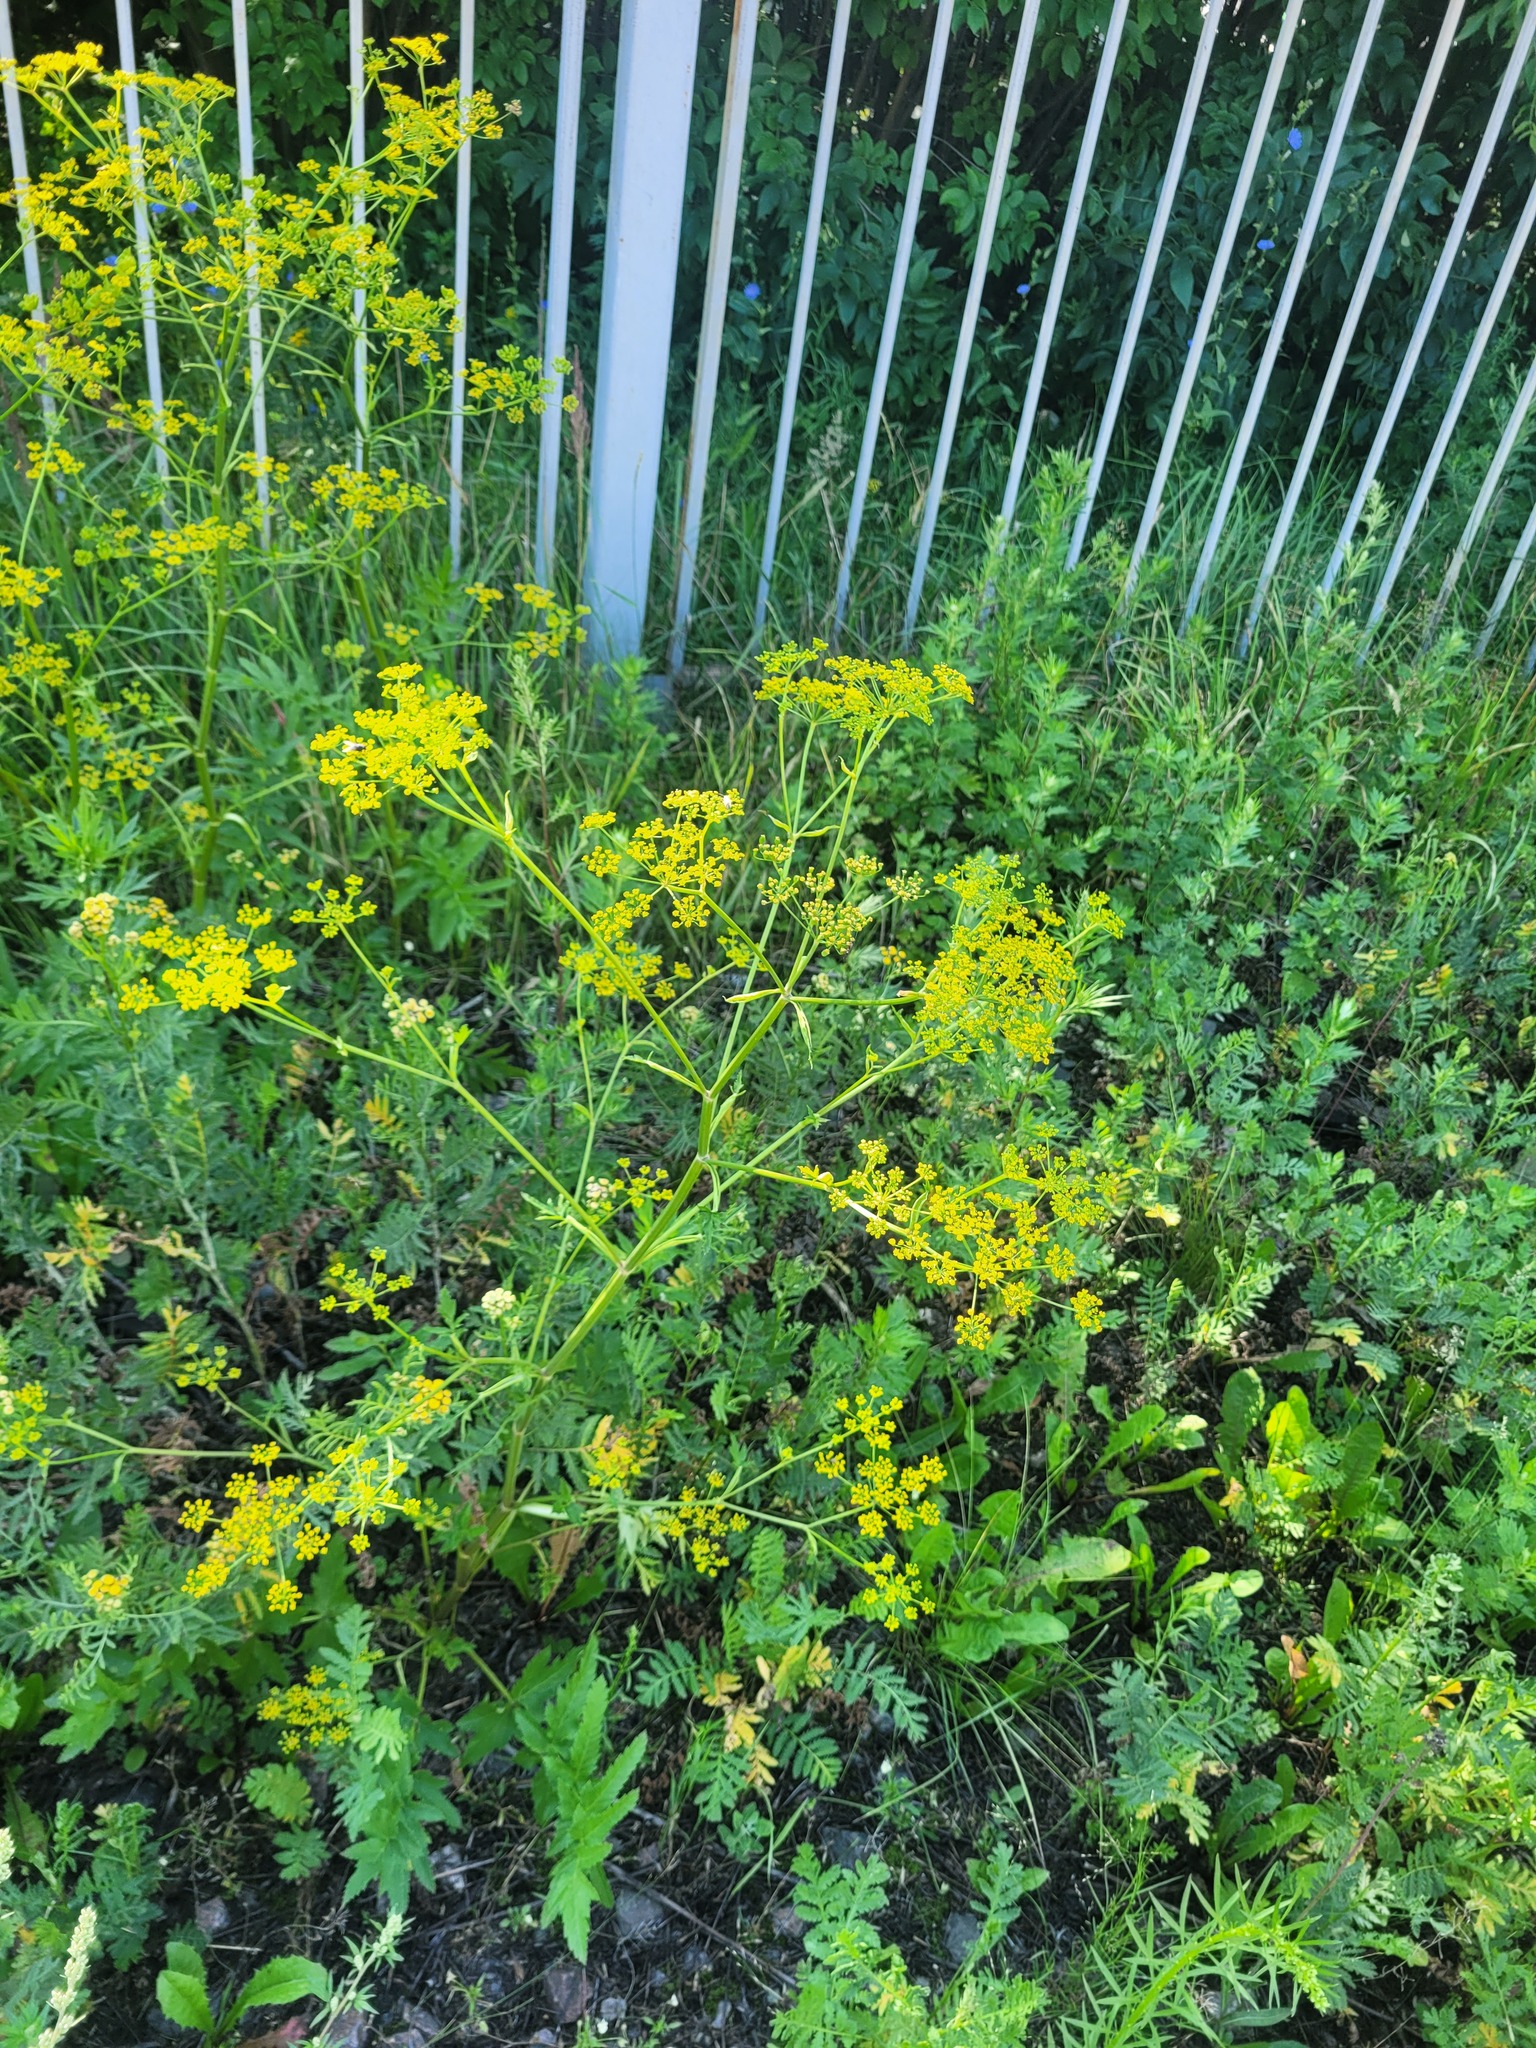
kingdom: Plantae
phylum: Tracheophyta
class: Magnoliopsida
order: Apiales
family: Apiaceae
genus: Pastinaca
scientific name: Pastinaca sativa
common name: Wild parsnip
